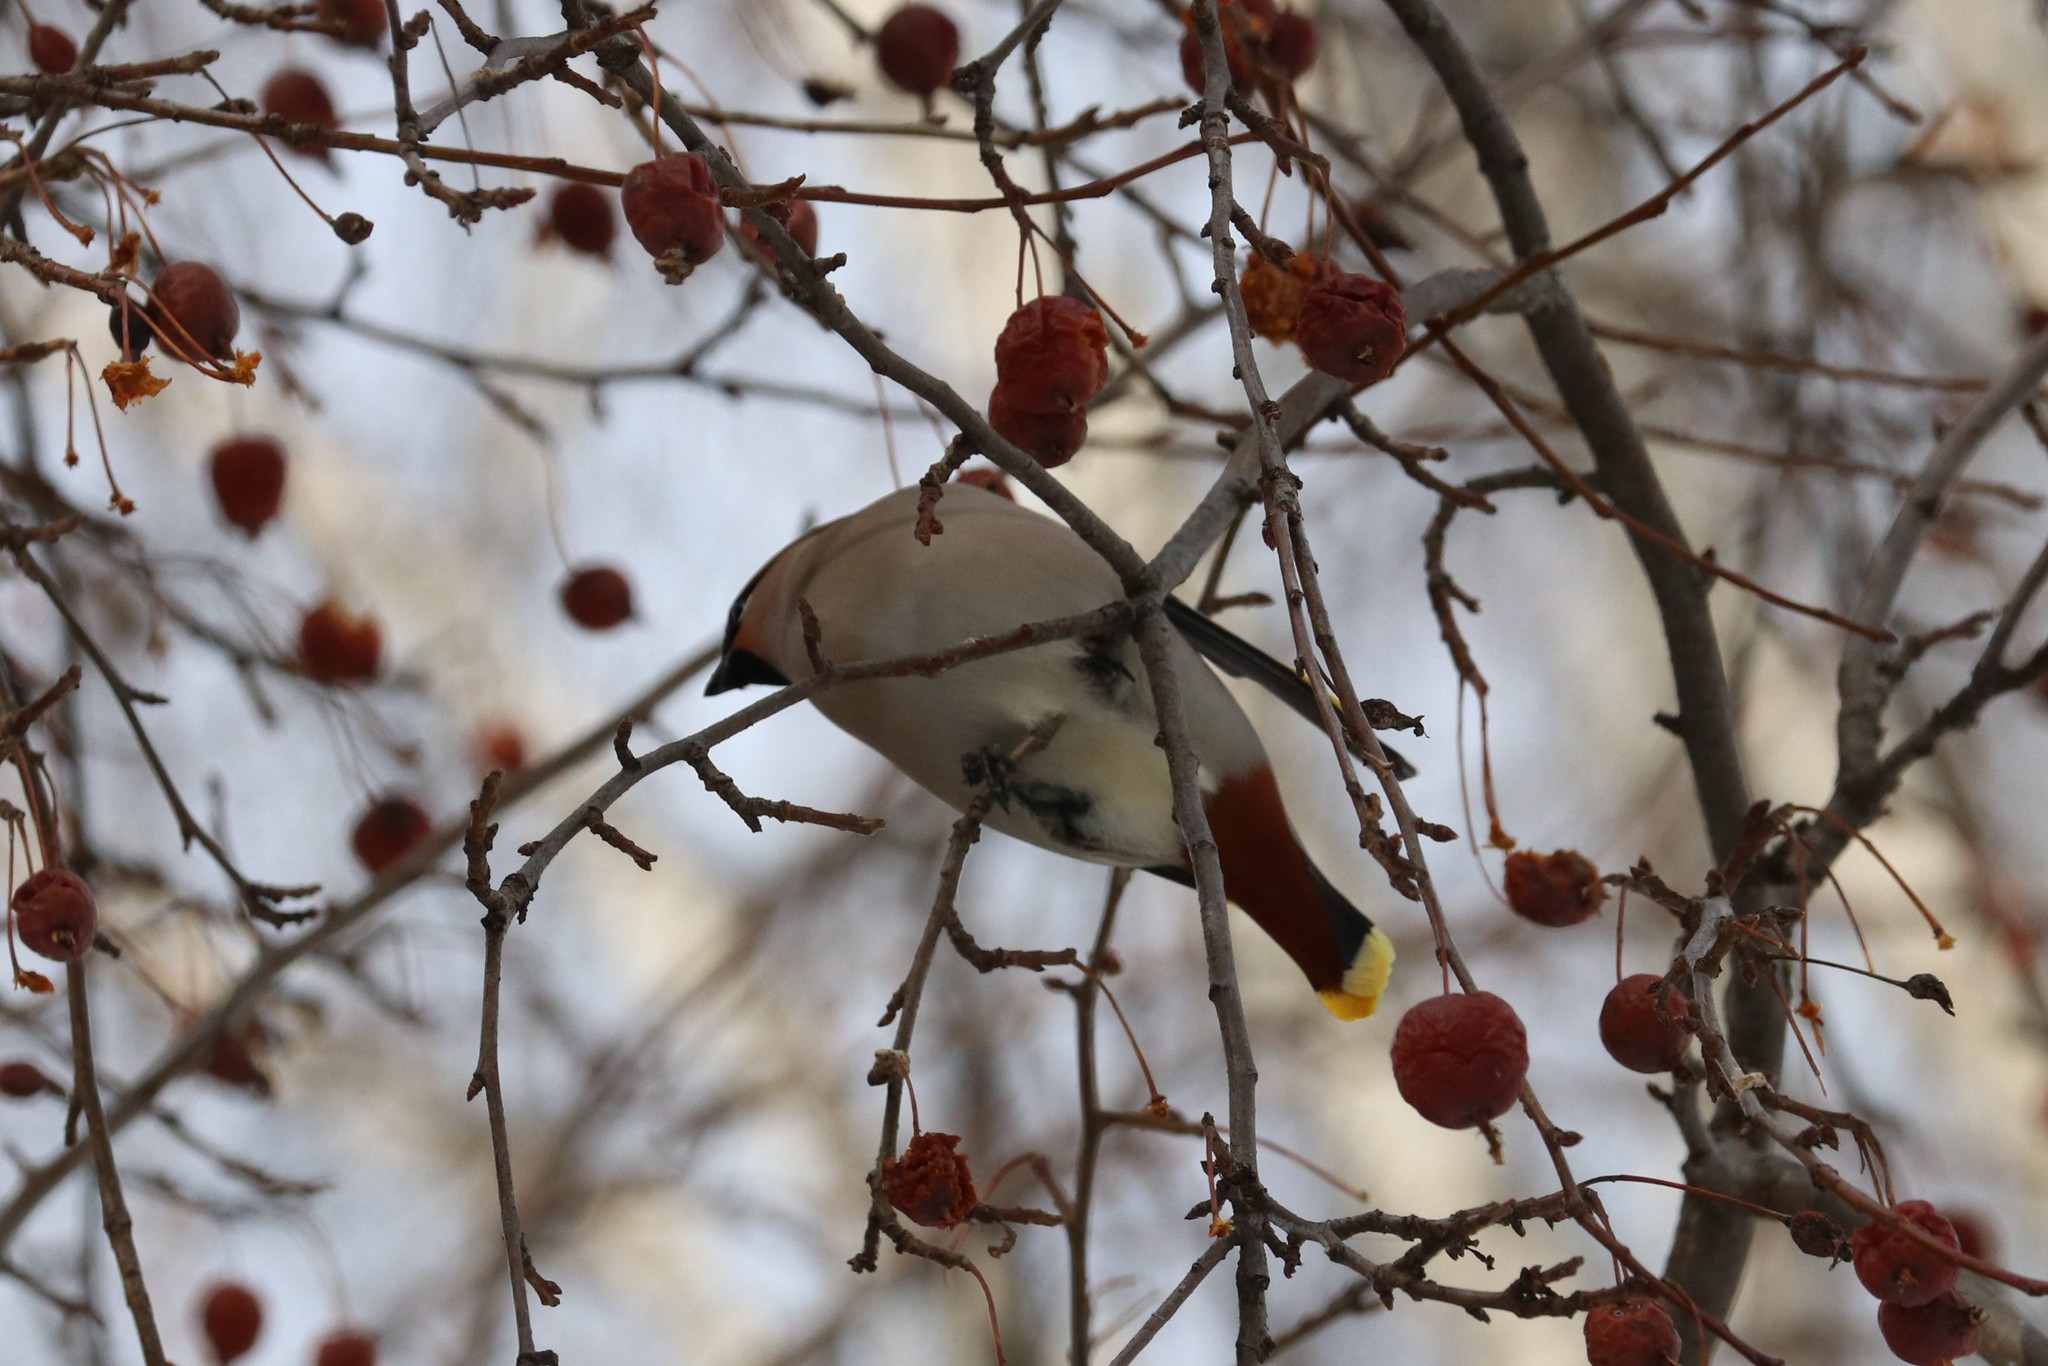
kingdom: Animalia
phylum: Chordata
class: Aves
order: Passeriformes
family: Bombycillidae
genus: Bombycilla
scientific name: Bombycilla garrulus
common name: Bohemian waxwing
